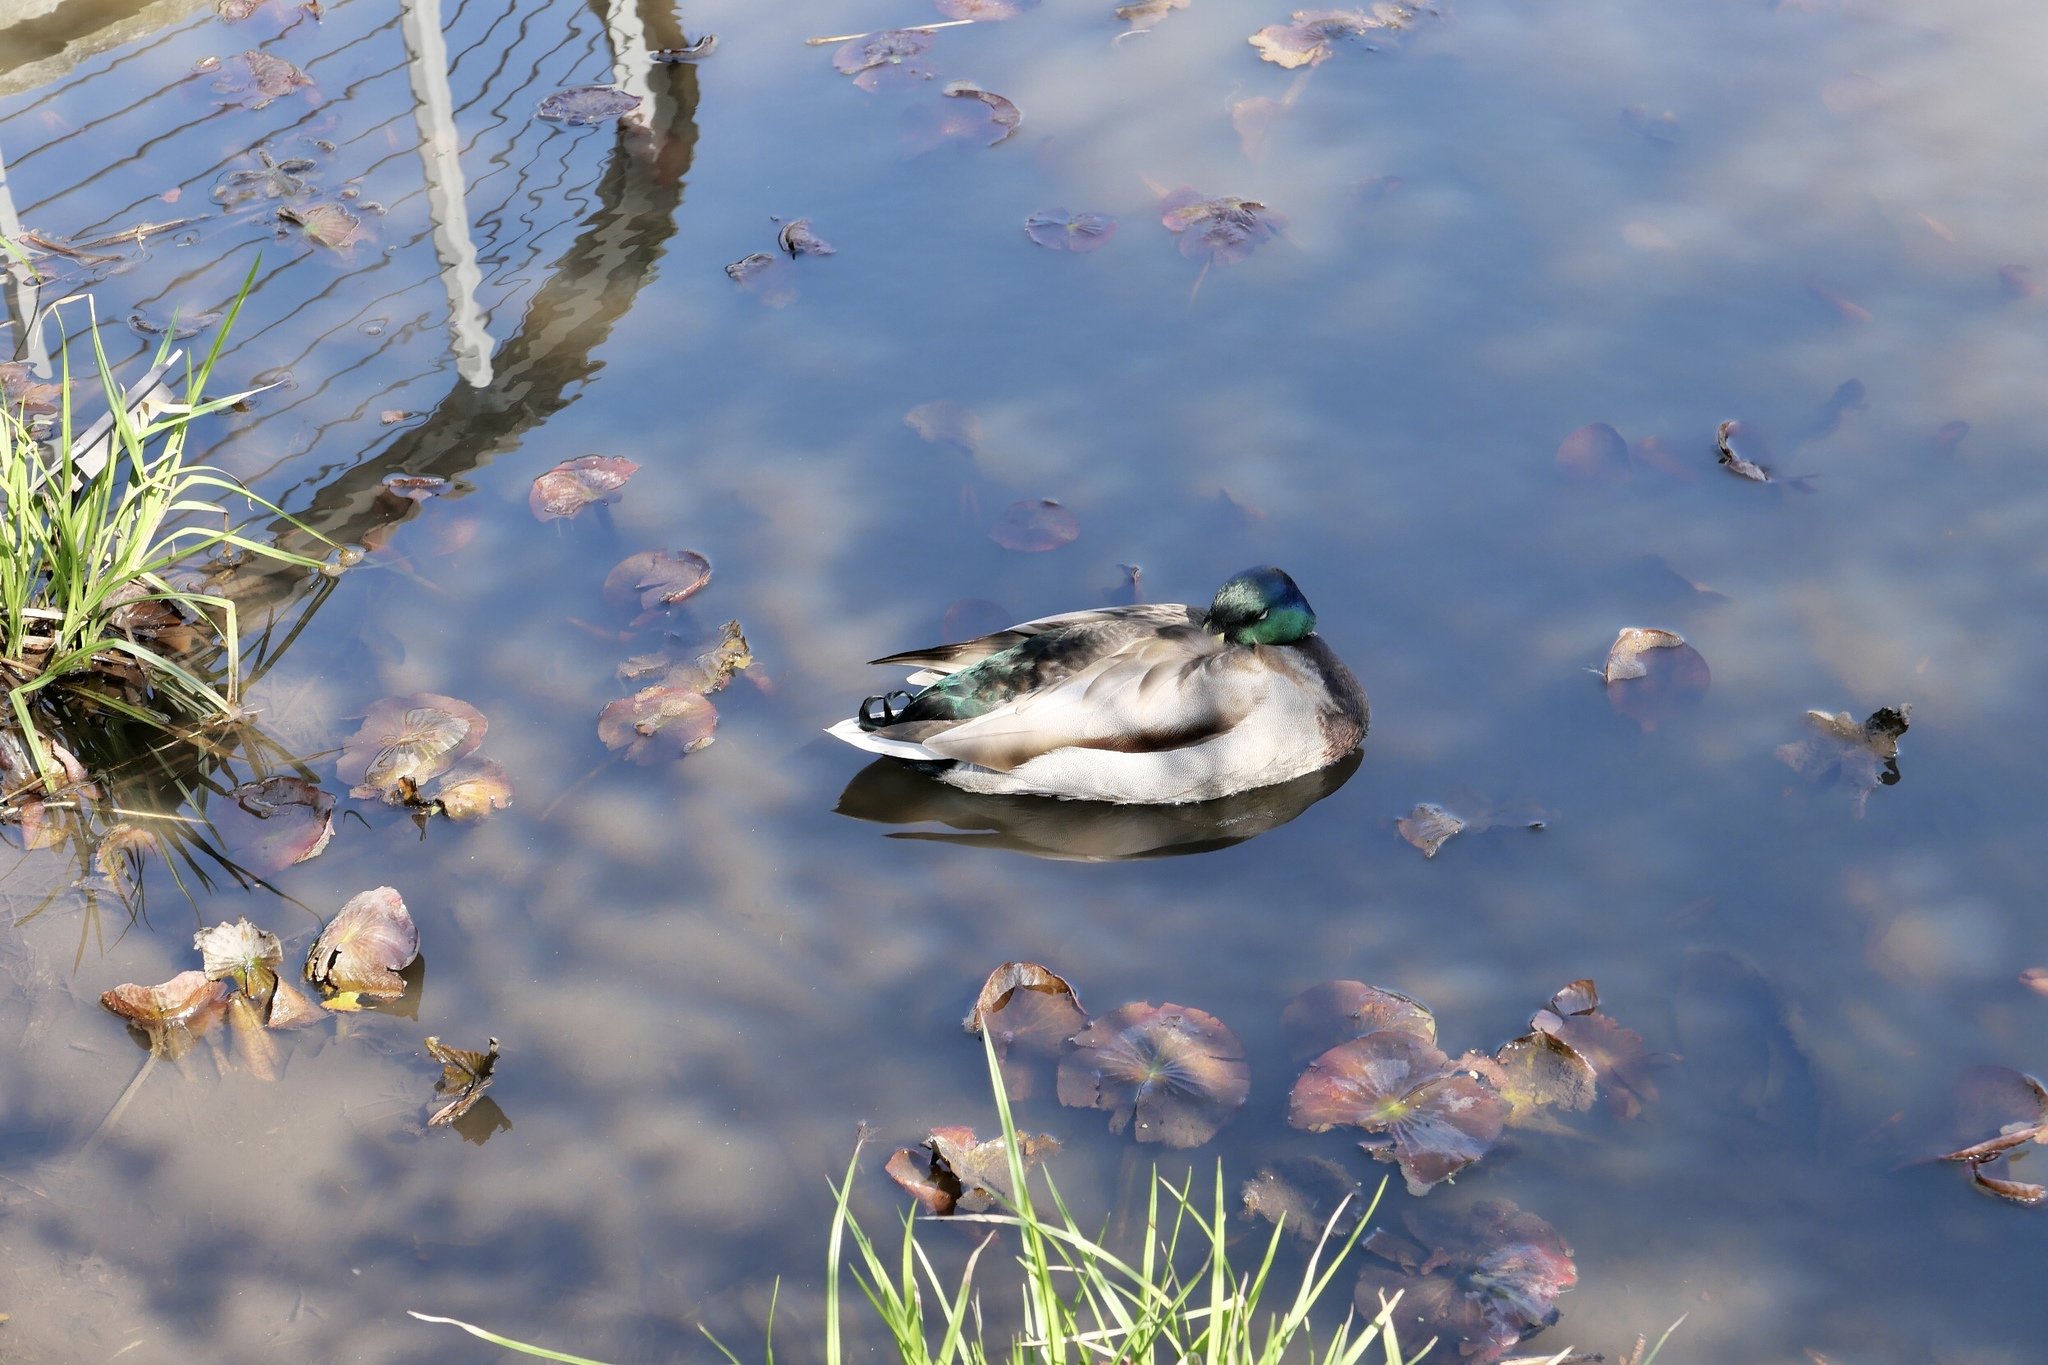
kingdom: Animalia
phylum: Chordata
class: Aves
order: Anseriformes
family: Anatidae
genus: Anas
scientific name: Anas platyrhynchos
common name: Mallard
